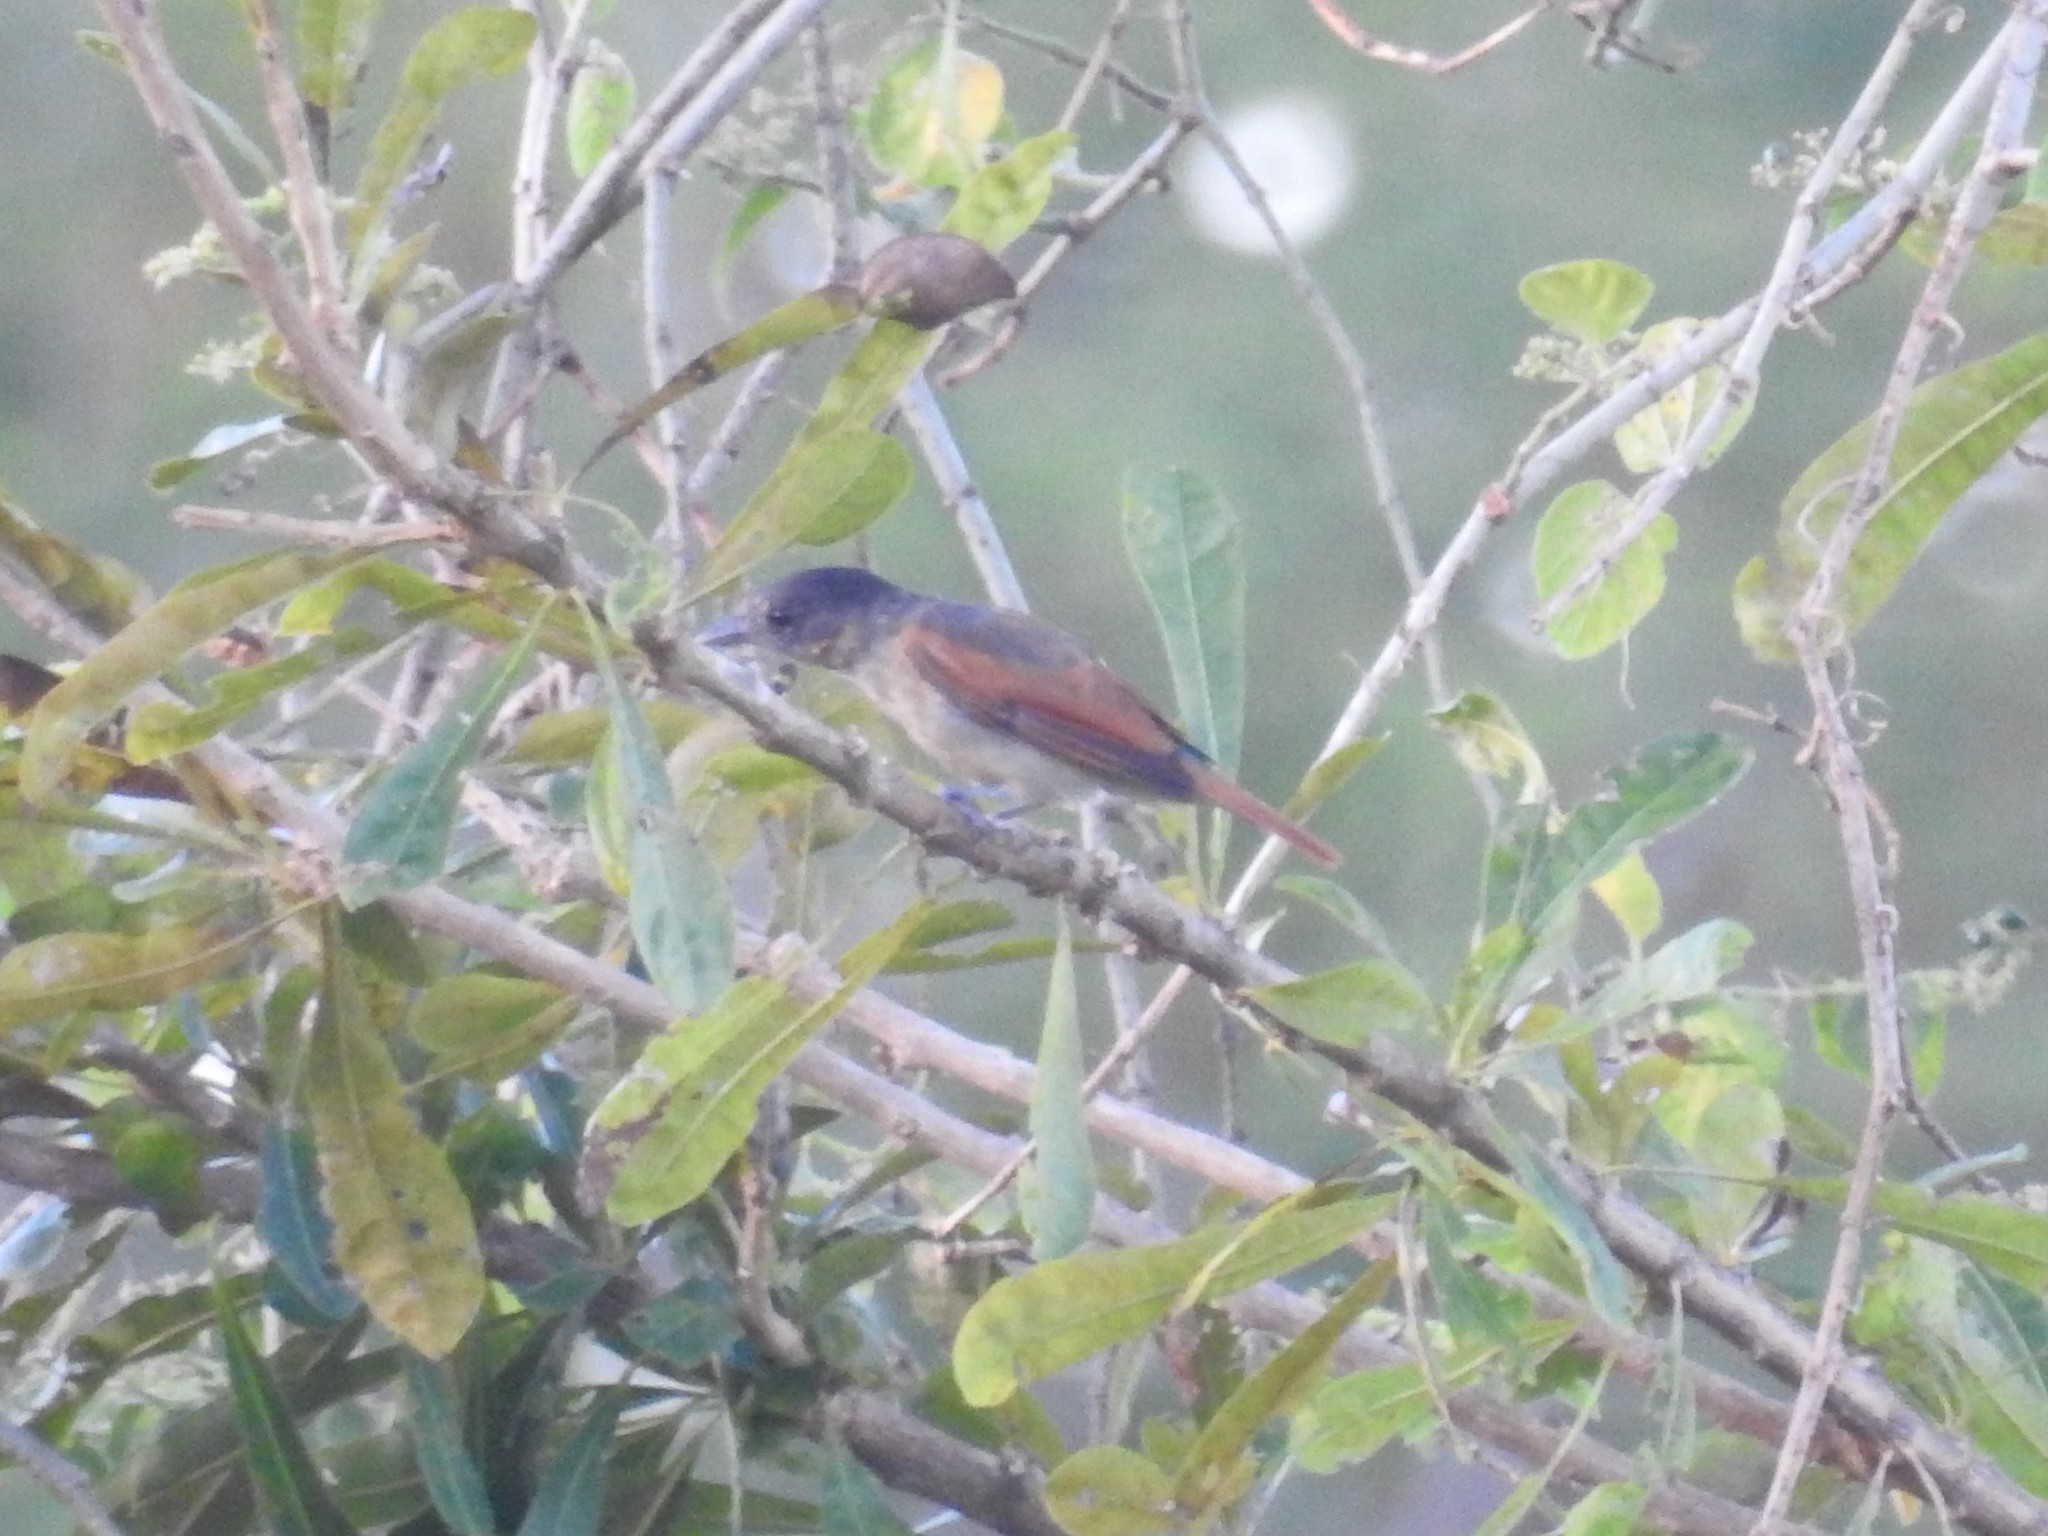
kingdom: Animalia
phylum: Chordata
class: Aves
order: Passeriformes
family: Cotingidae
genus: Pachyramphus
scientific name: Pachyramphus aglaiae
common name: Rose-throated becard
